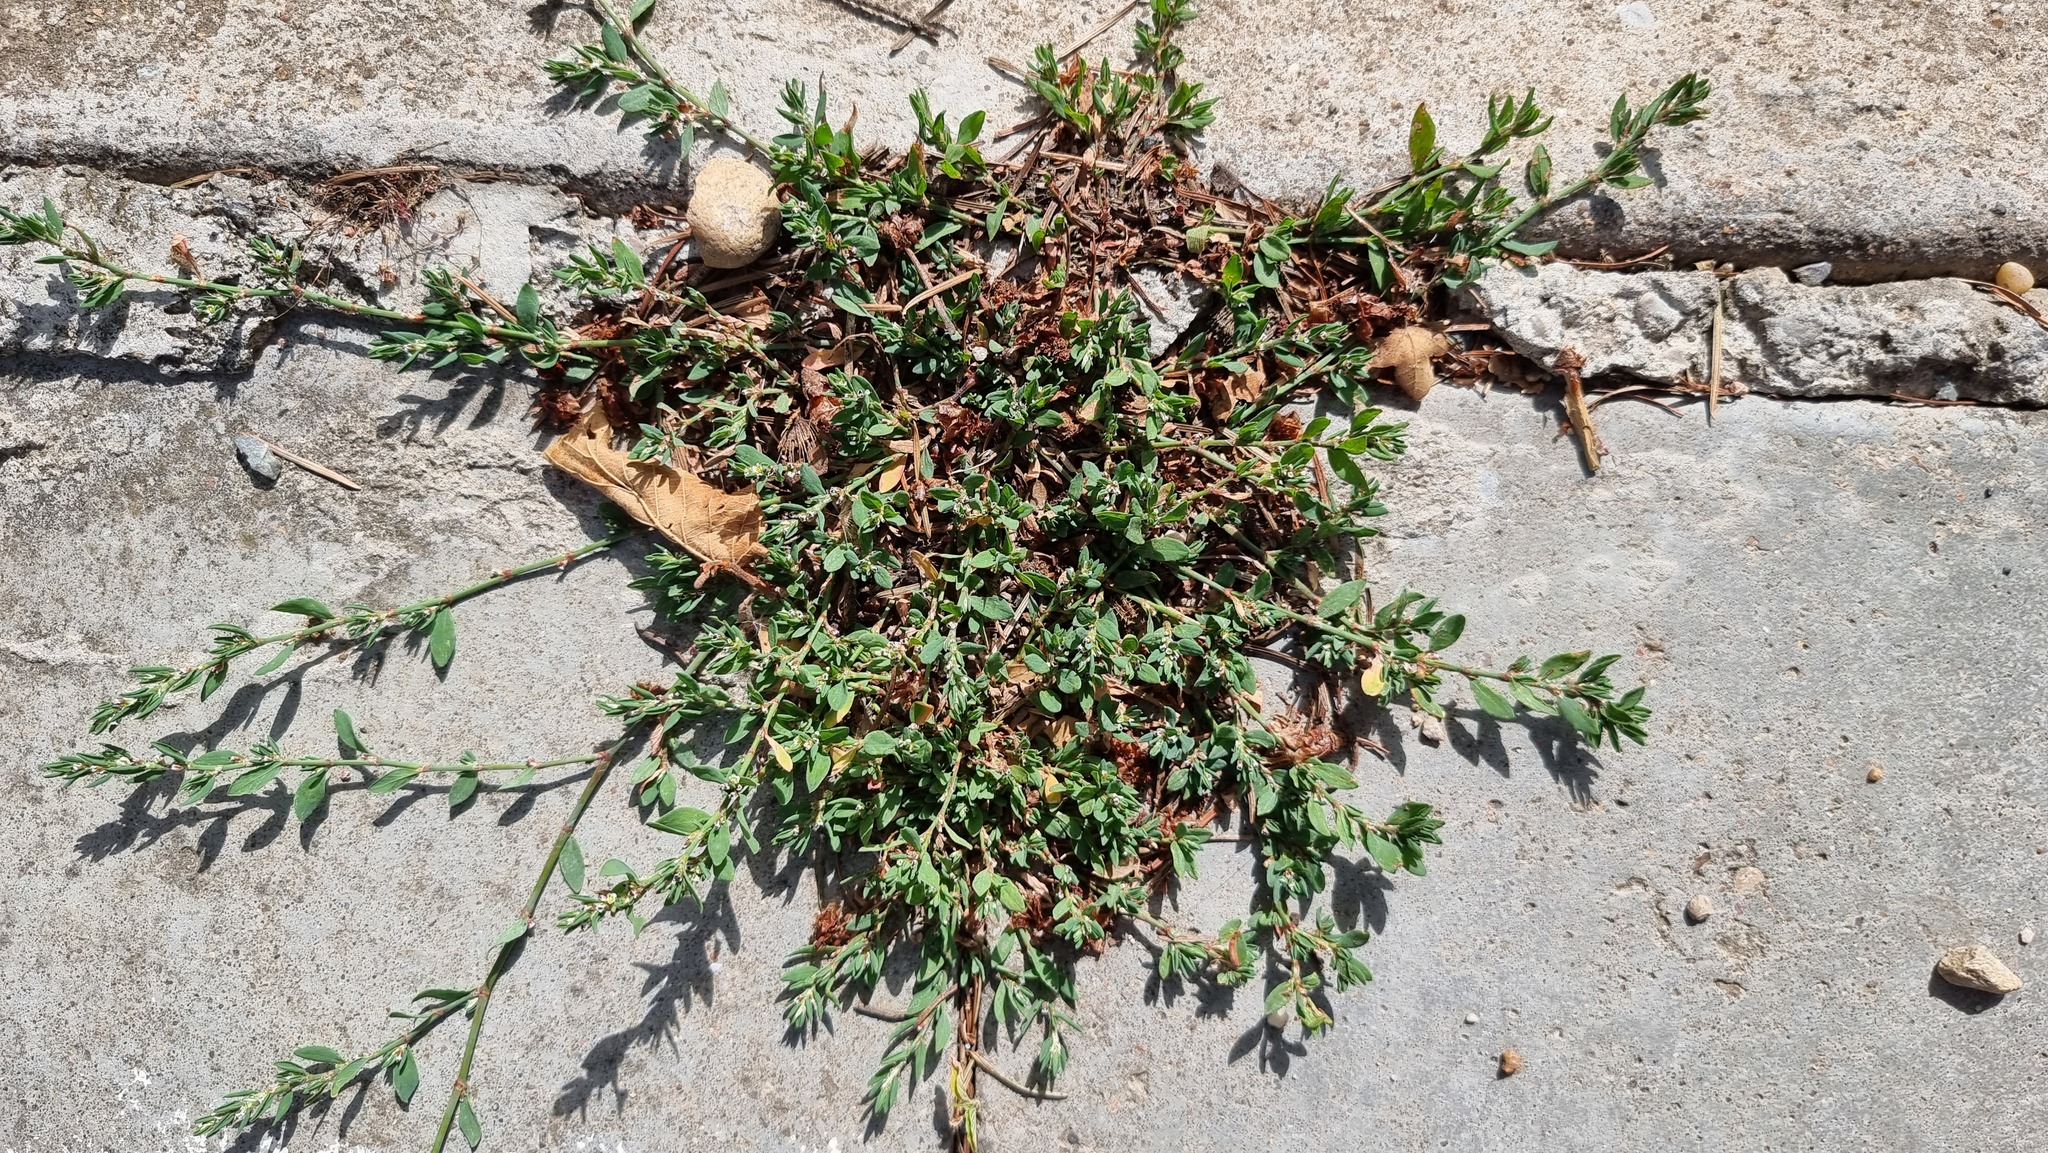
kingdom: Plantae
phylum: Tracheophyta
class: Magnoliopsida
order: Caryophyllales
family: Polygonaceae
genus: Polygonum
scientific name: Polygonum aviculare
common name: Prostrate knotweed
